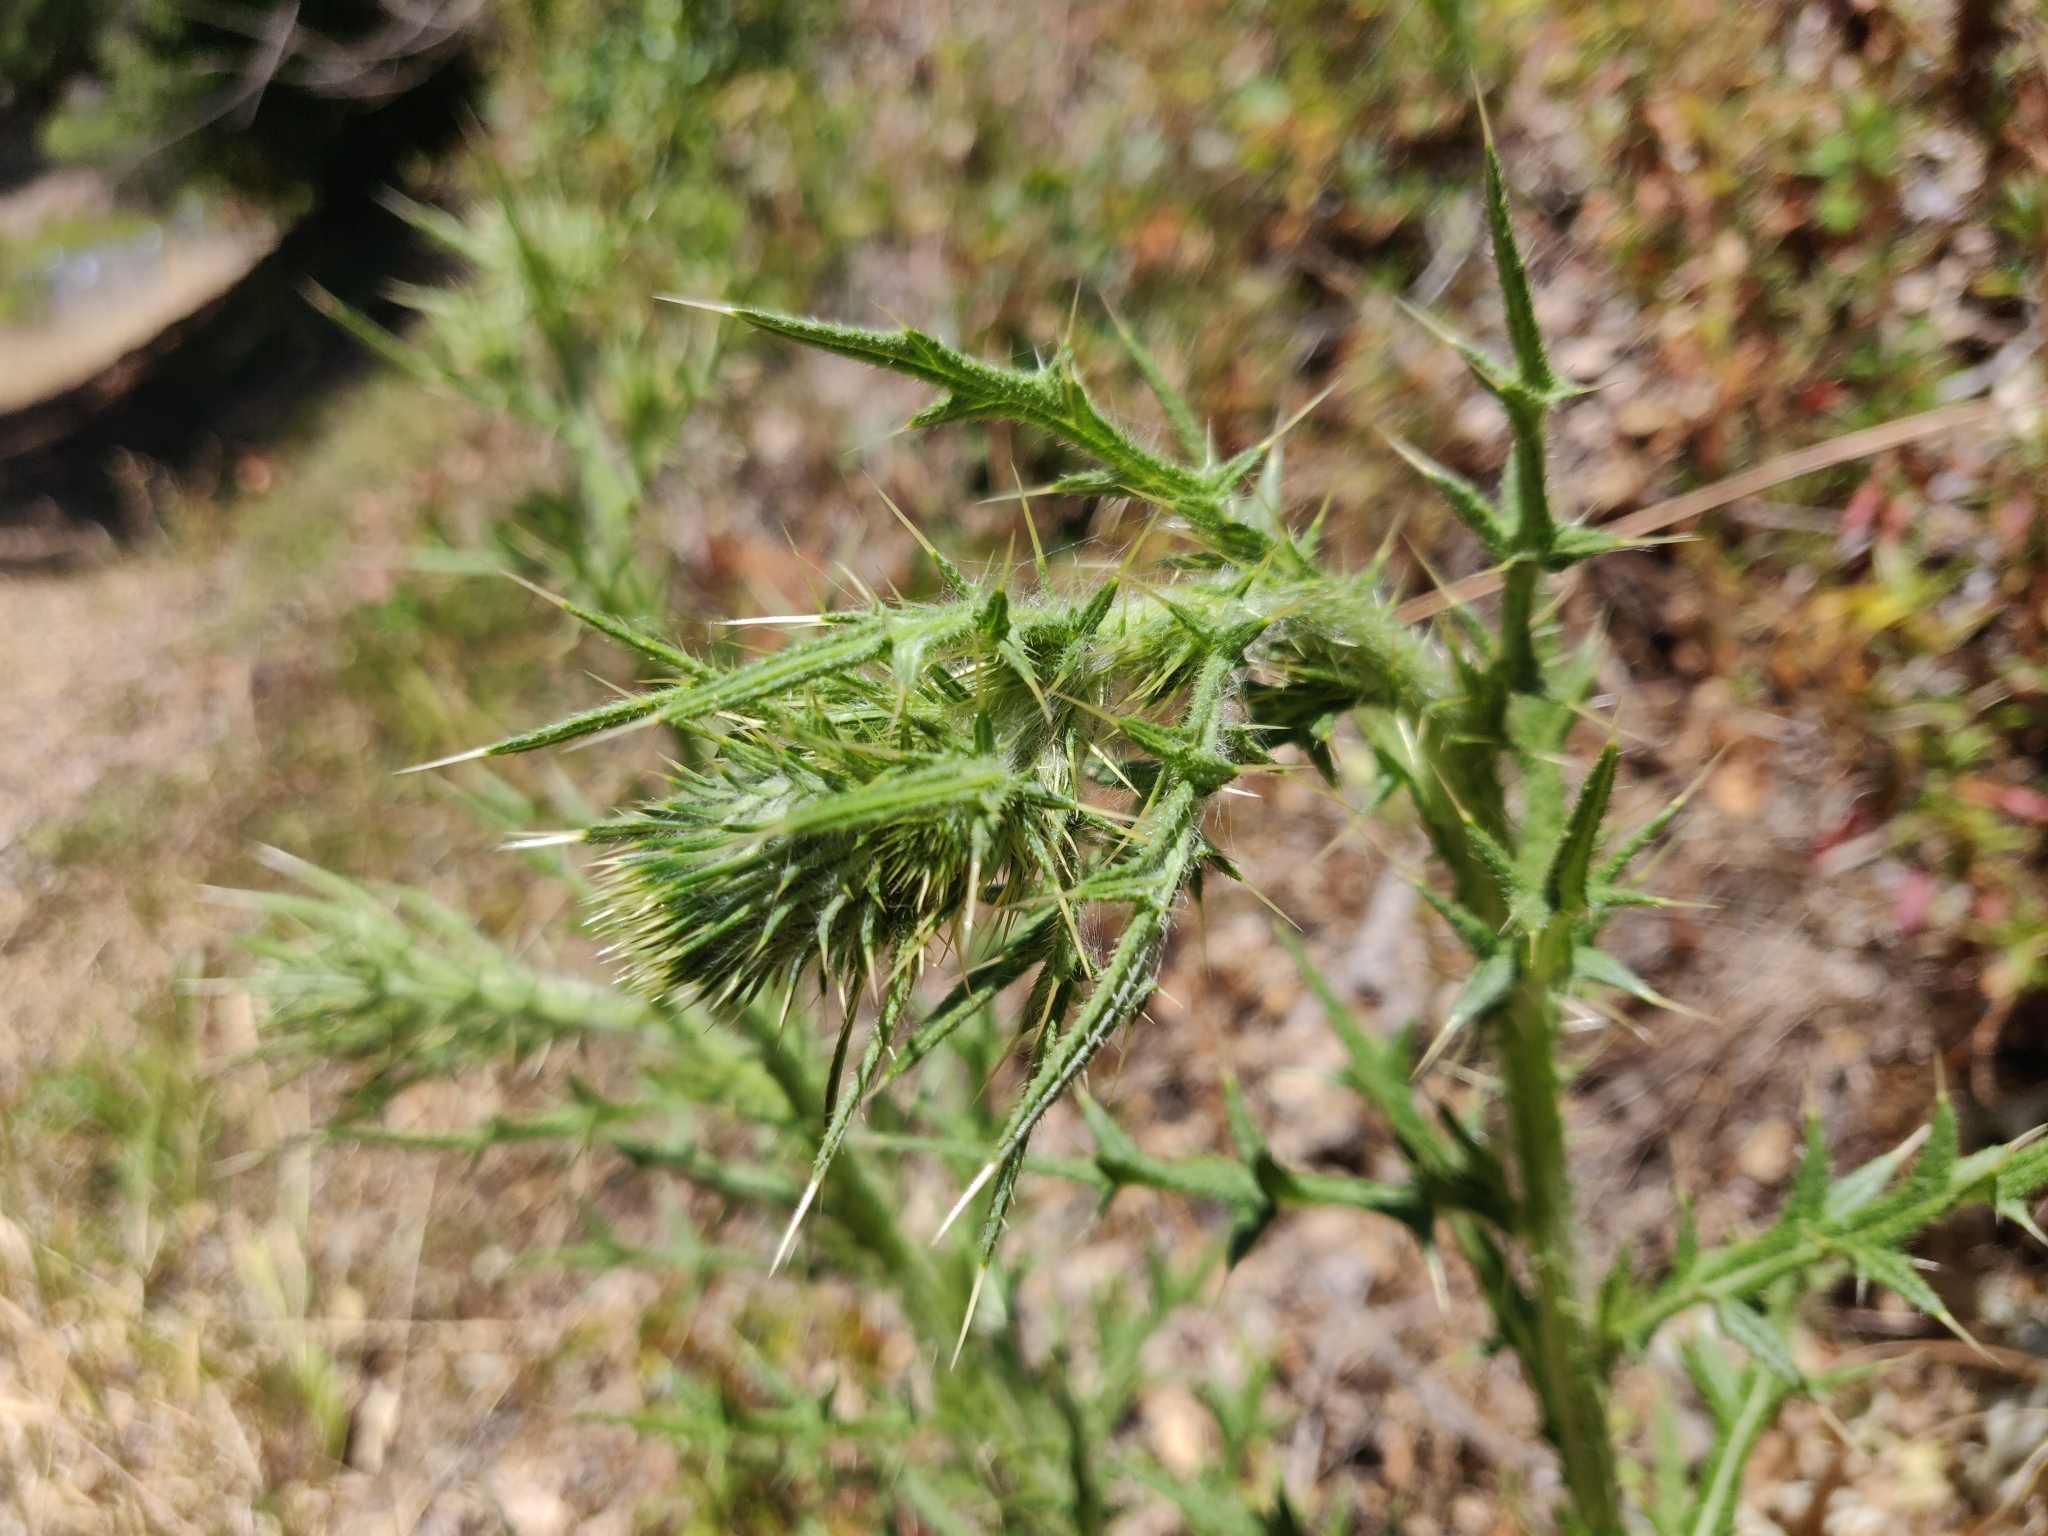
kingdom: Plantae
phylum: Tracheophyta
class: Magnoliopsida
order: Asterales
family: Asteraceae
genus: Cirsium
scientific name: Cirsium vulgare
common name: Bull thistle
